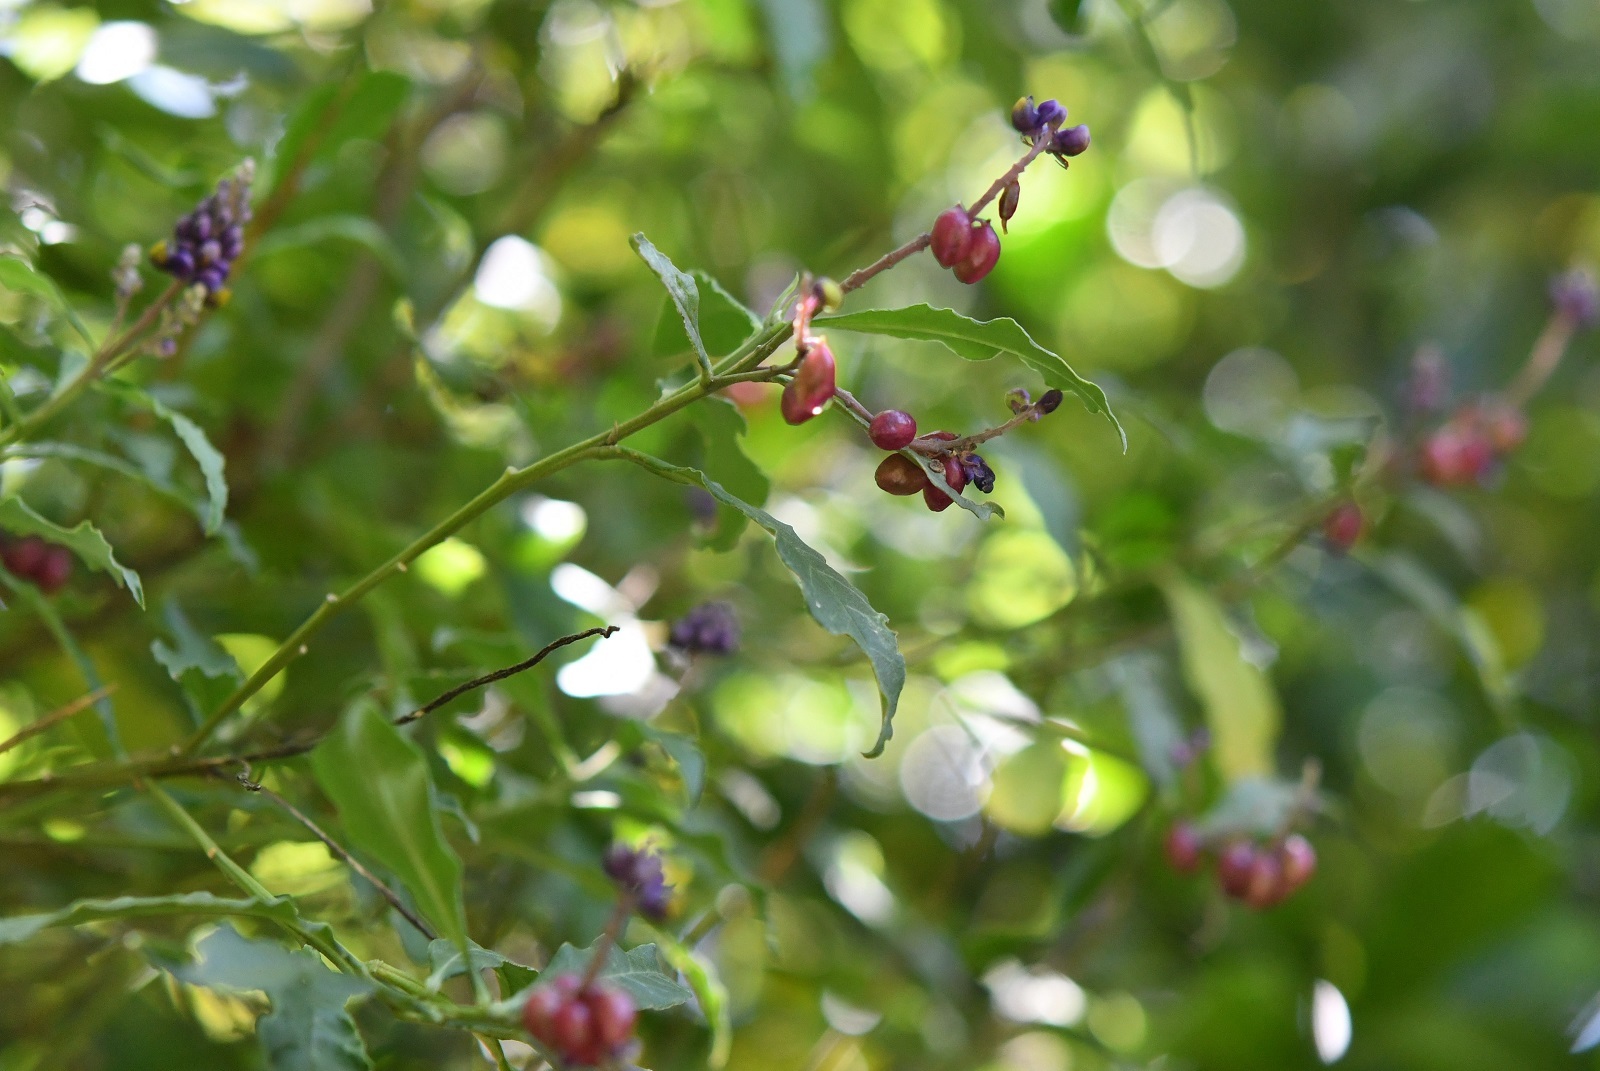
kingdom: Plantae
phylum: Tracheophyta
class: Magnoliopsida
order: Fabales
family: Polygalaceae
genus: Monnina
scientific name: Monnina xalapensis
